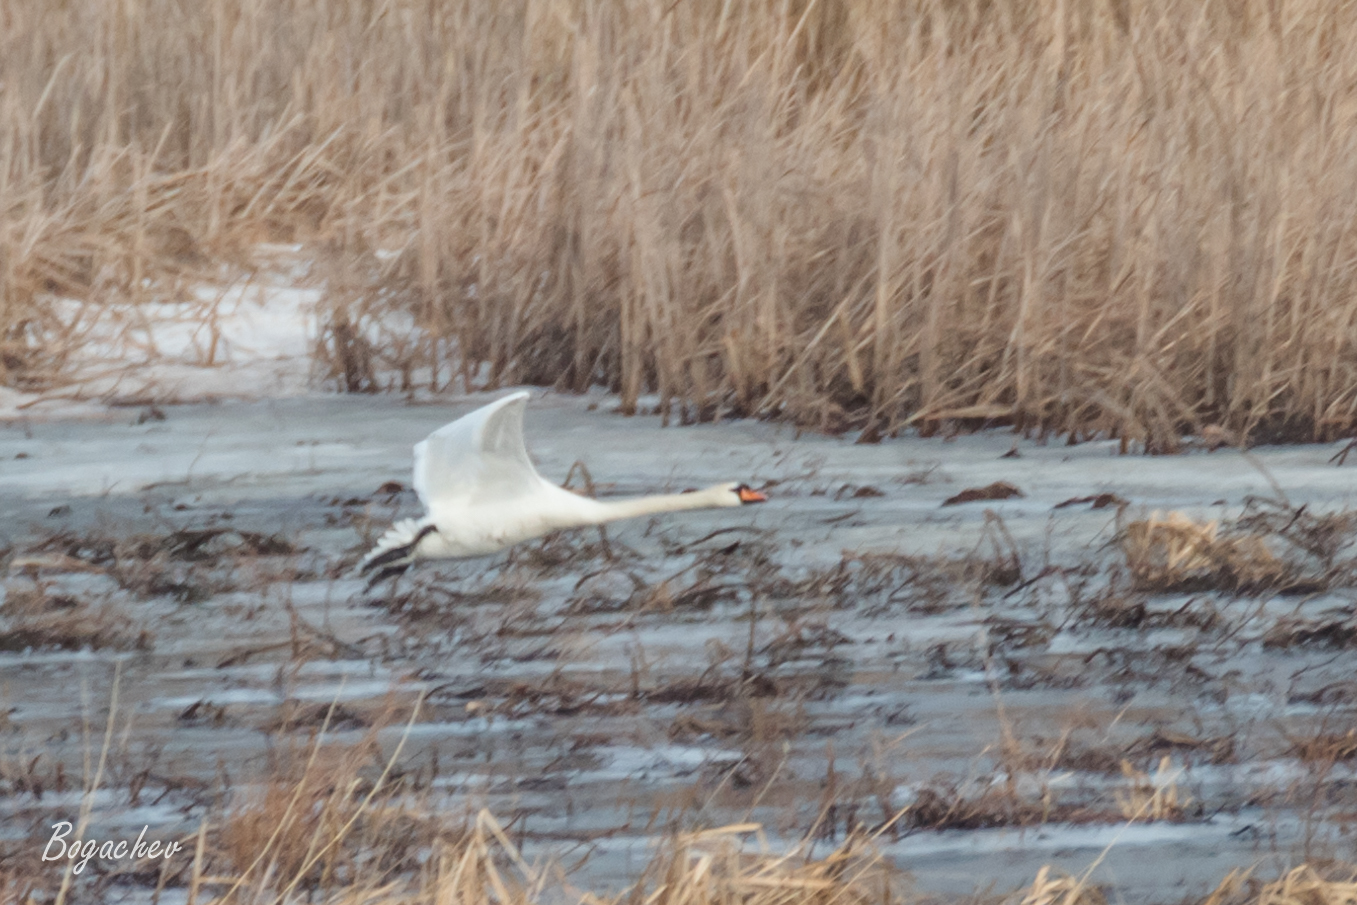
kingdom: Animalia
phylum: Chordata
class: Aves
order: Anseriformes
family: Anatidae
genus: Cygnus
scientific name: Cygnus olor
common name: Mute swan
